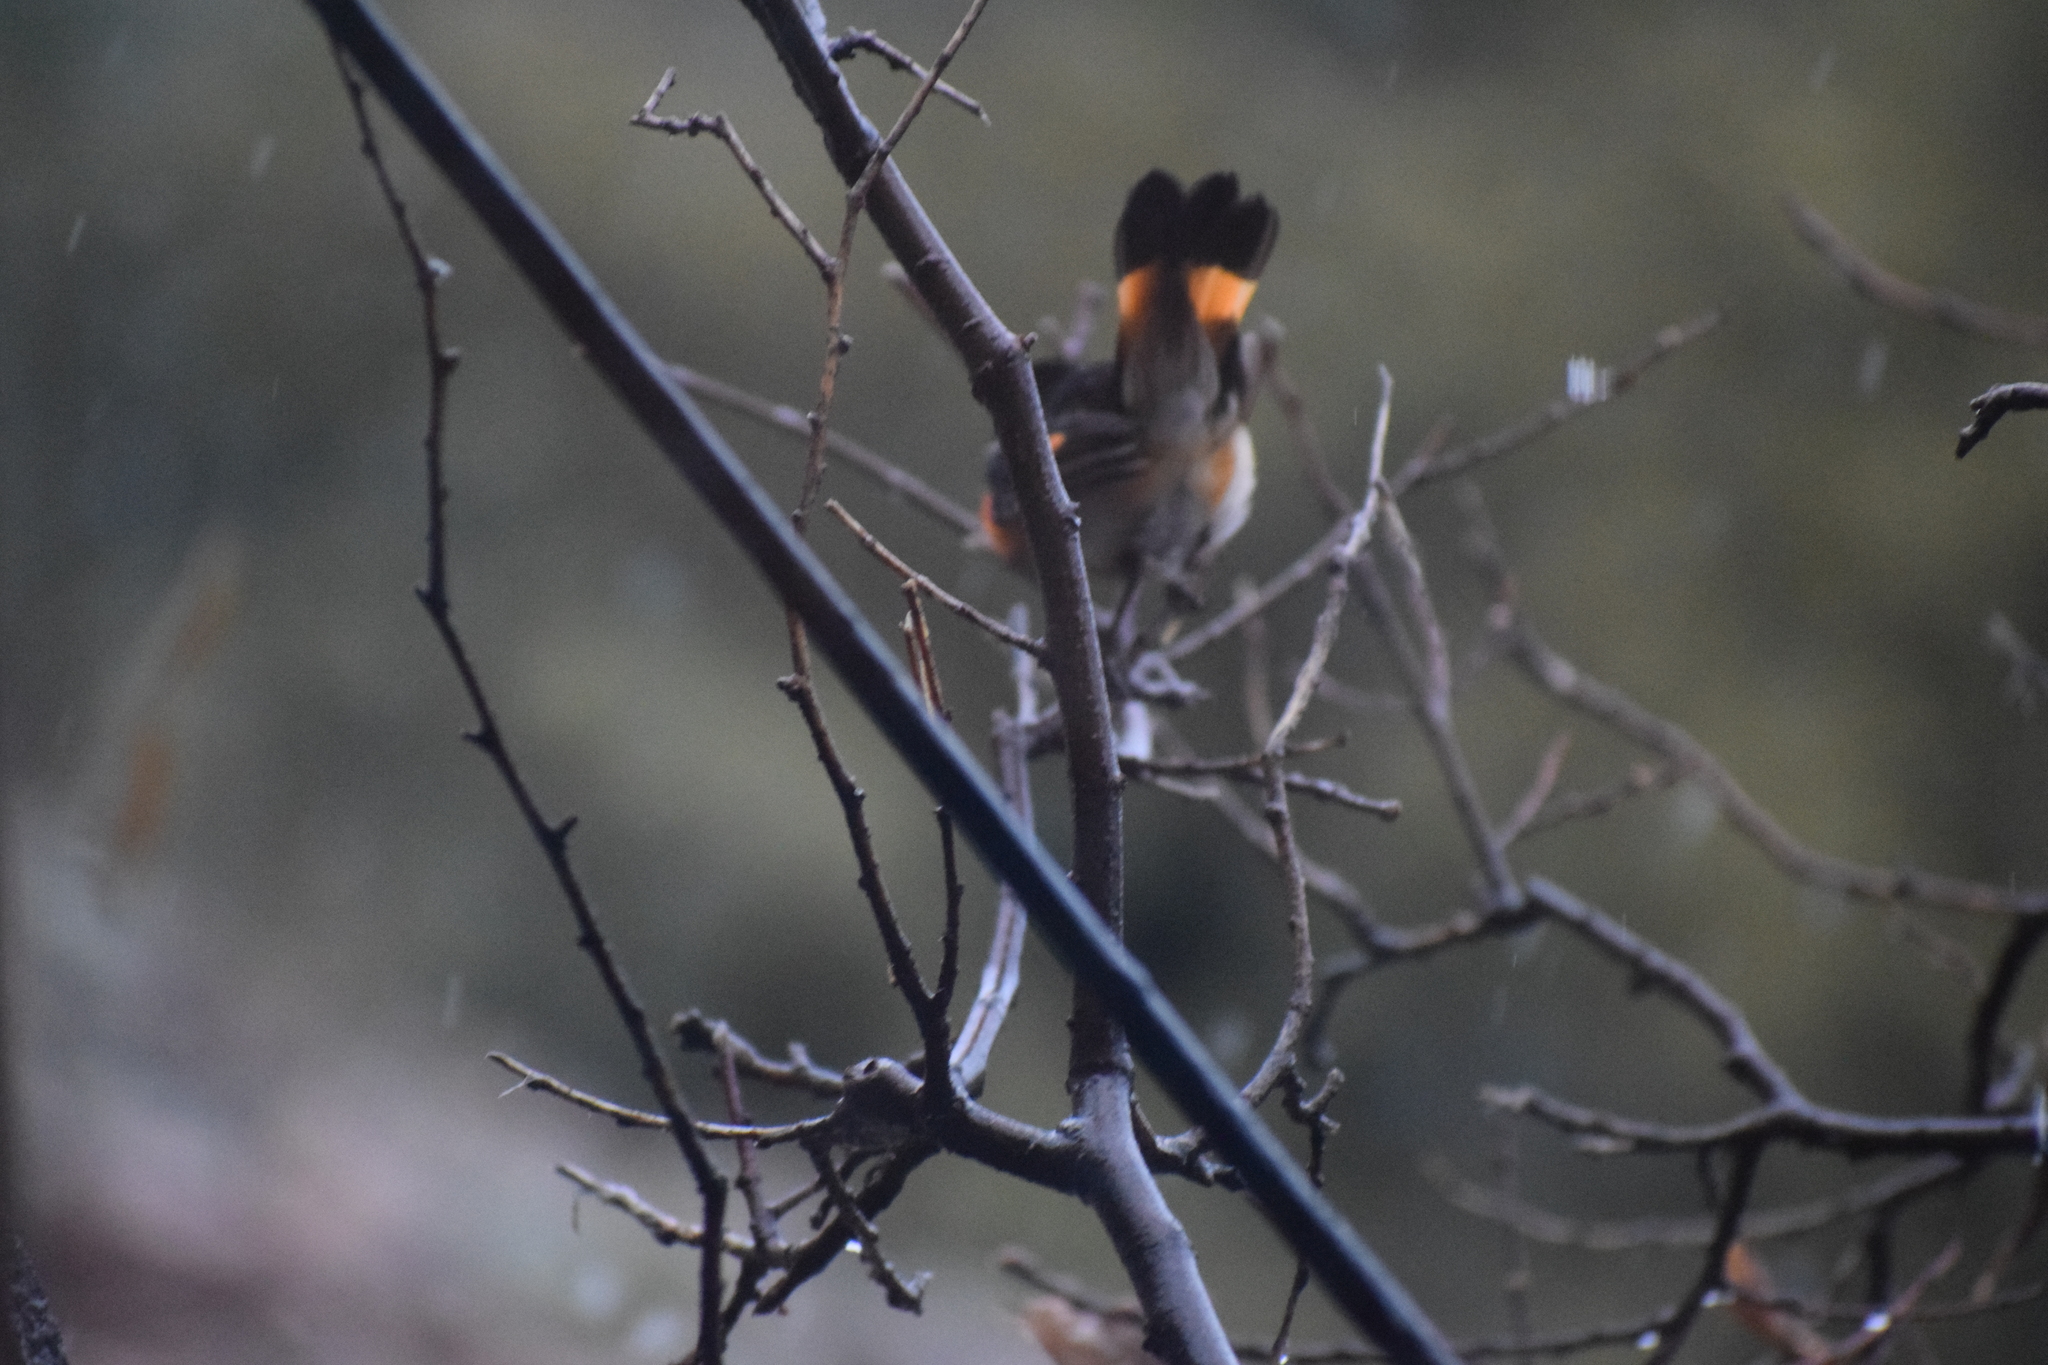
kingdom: Animalia
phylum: Chordata
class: Aves
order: Passeriformes
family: Parulidae
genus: Setophaga
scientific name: Setophaga ruticilla
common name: American redstart
